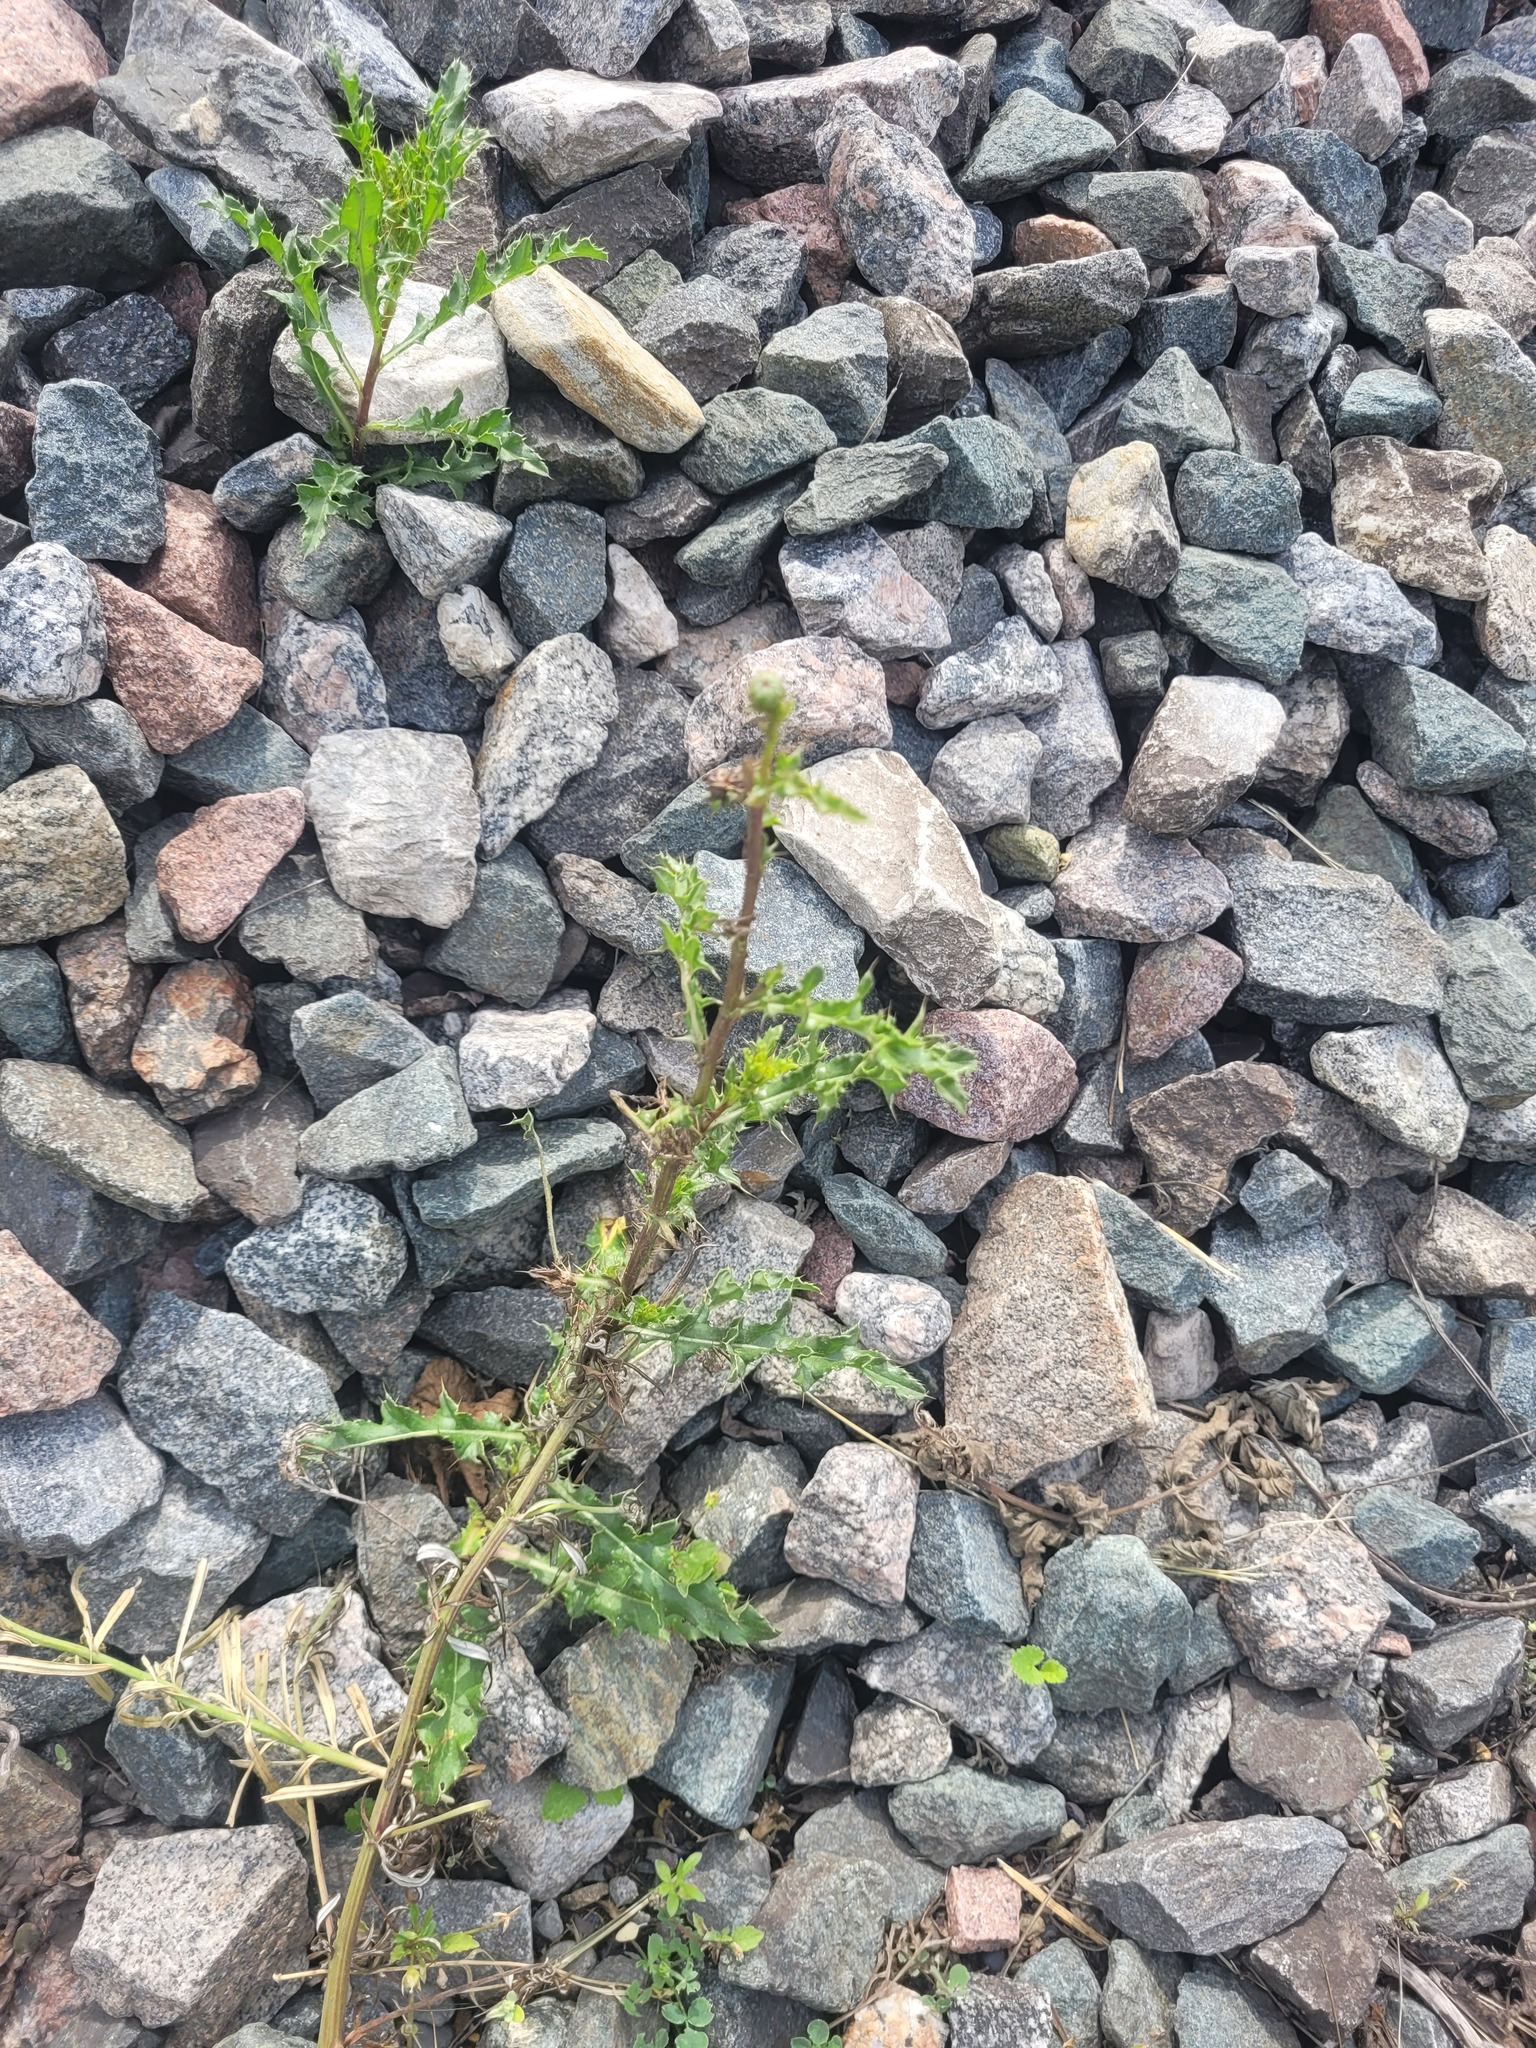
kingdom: Plantae
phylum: Tracheophyta
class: Magnoliopsida
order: Asterales
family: Asteraceae
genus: Cirsium
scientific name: Cirsium arvense
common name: Creeping thistle
